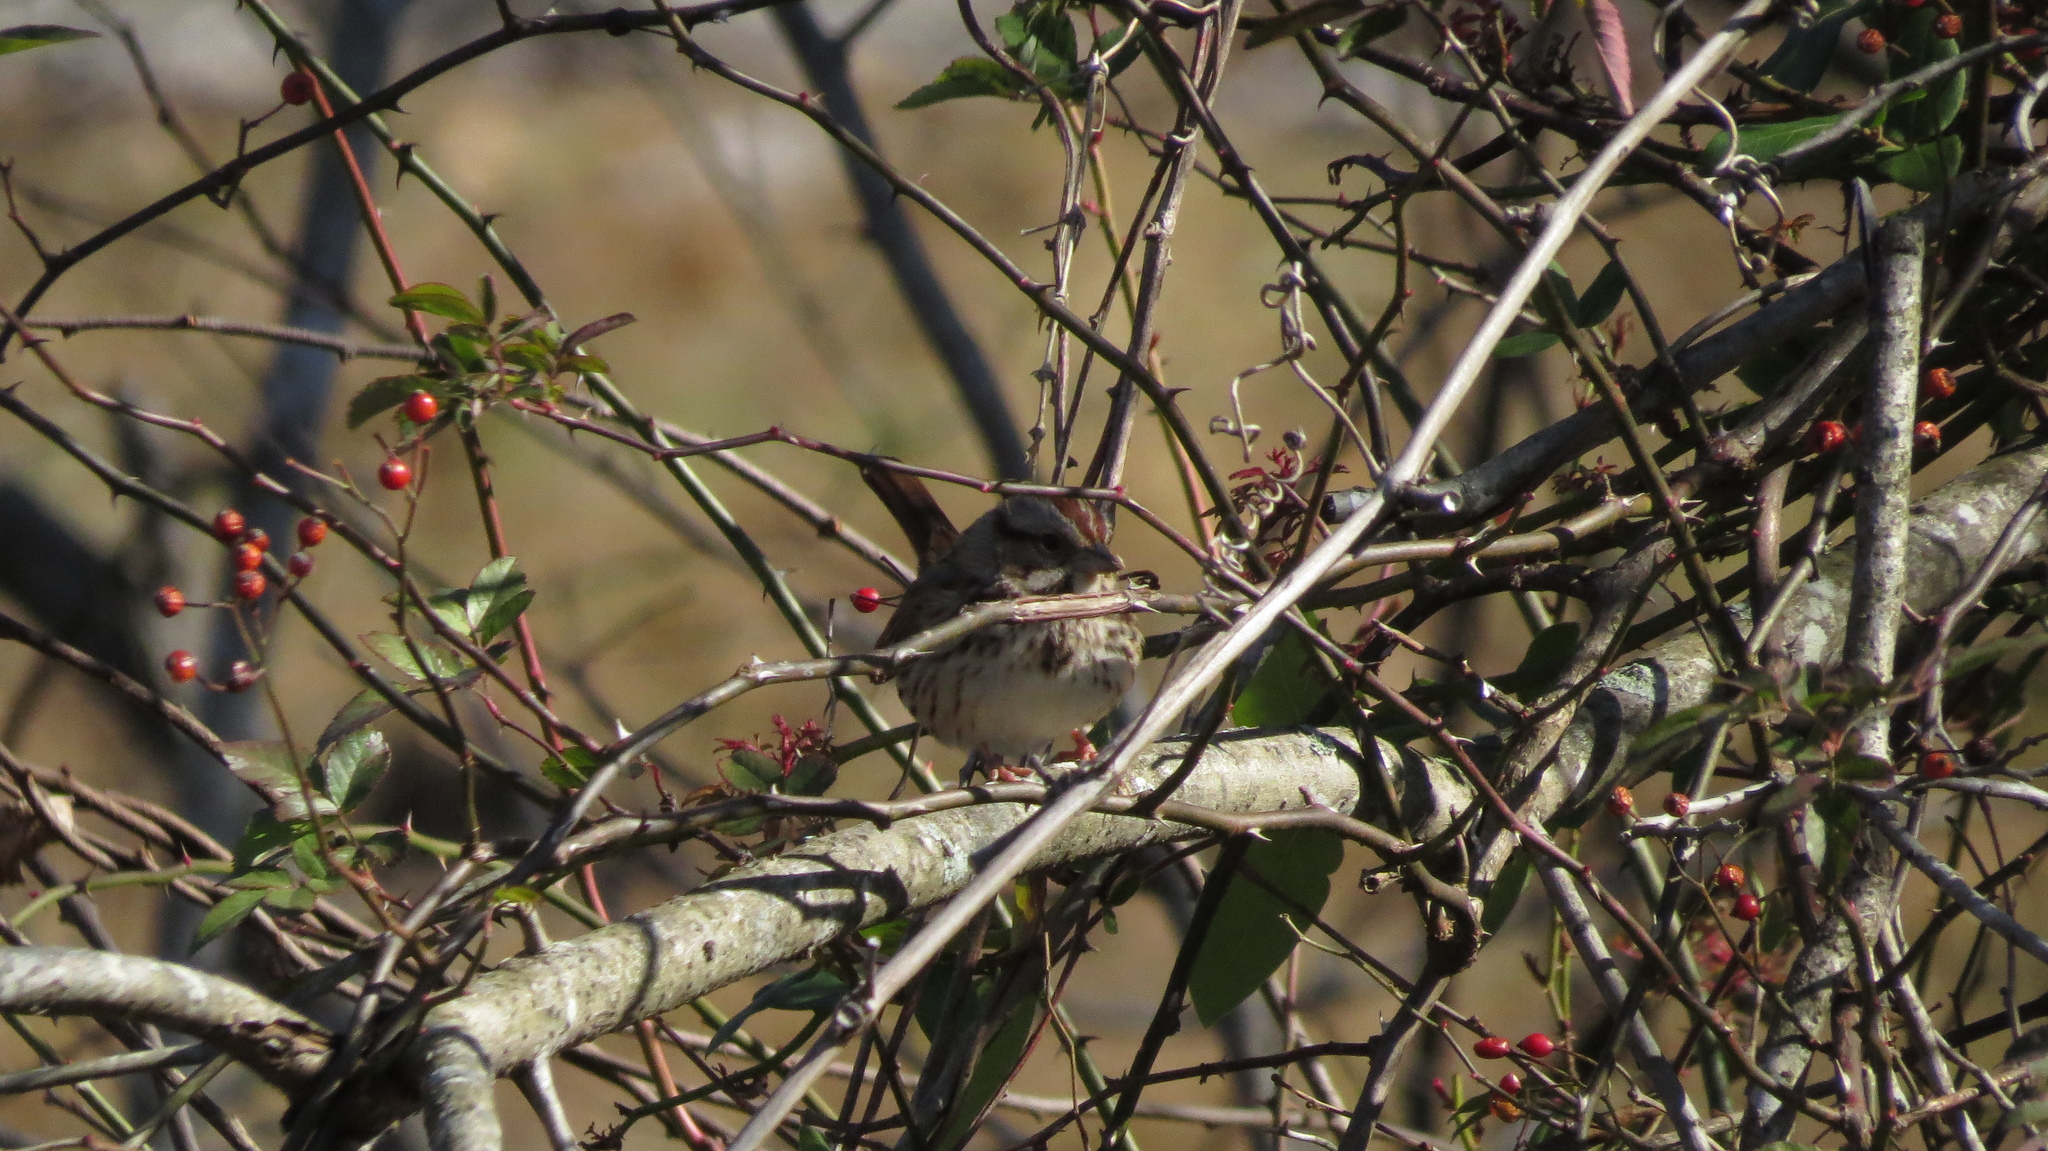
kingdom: Animalia
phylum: Chordata
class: Aves
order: Passeriformes
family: Passerellidae
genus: Melospiza
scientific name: Melospiza melodia
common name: Song sparrow
